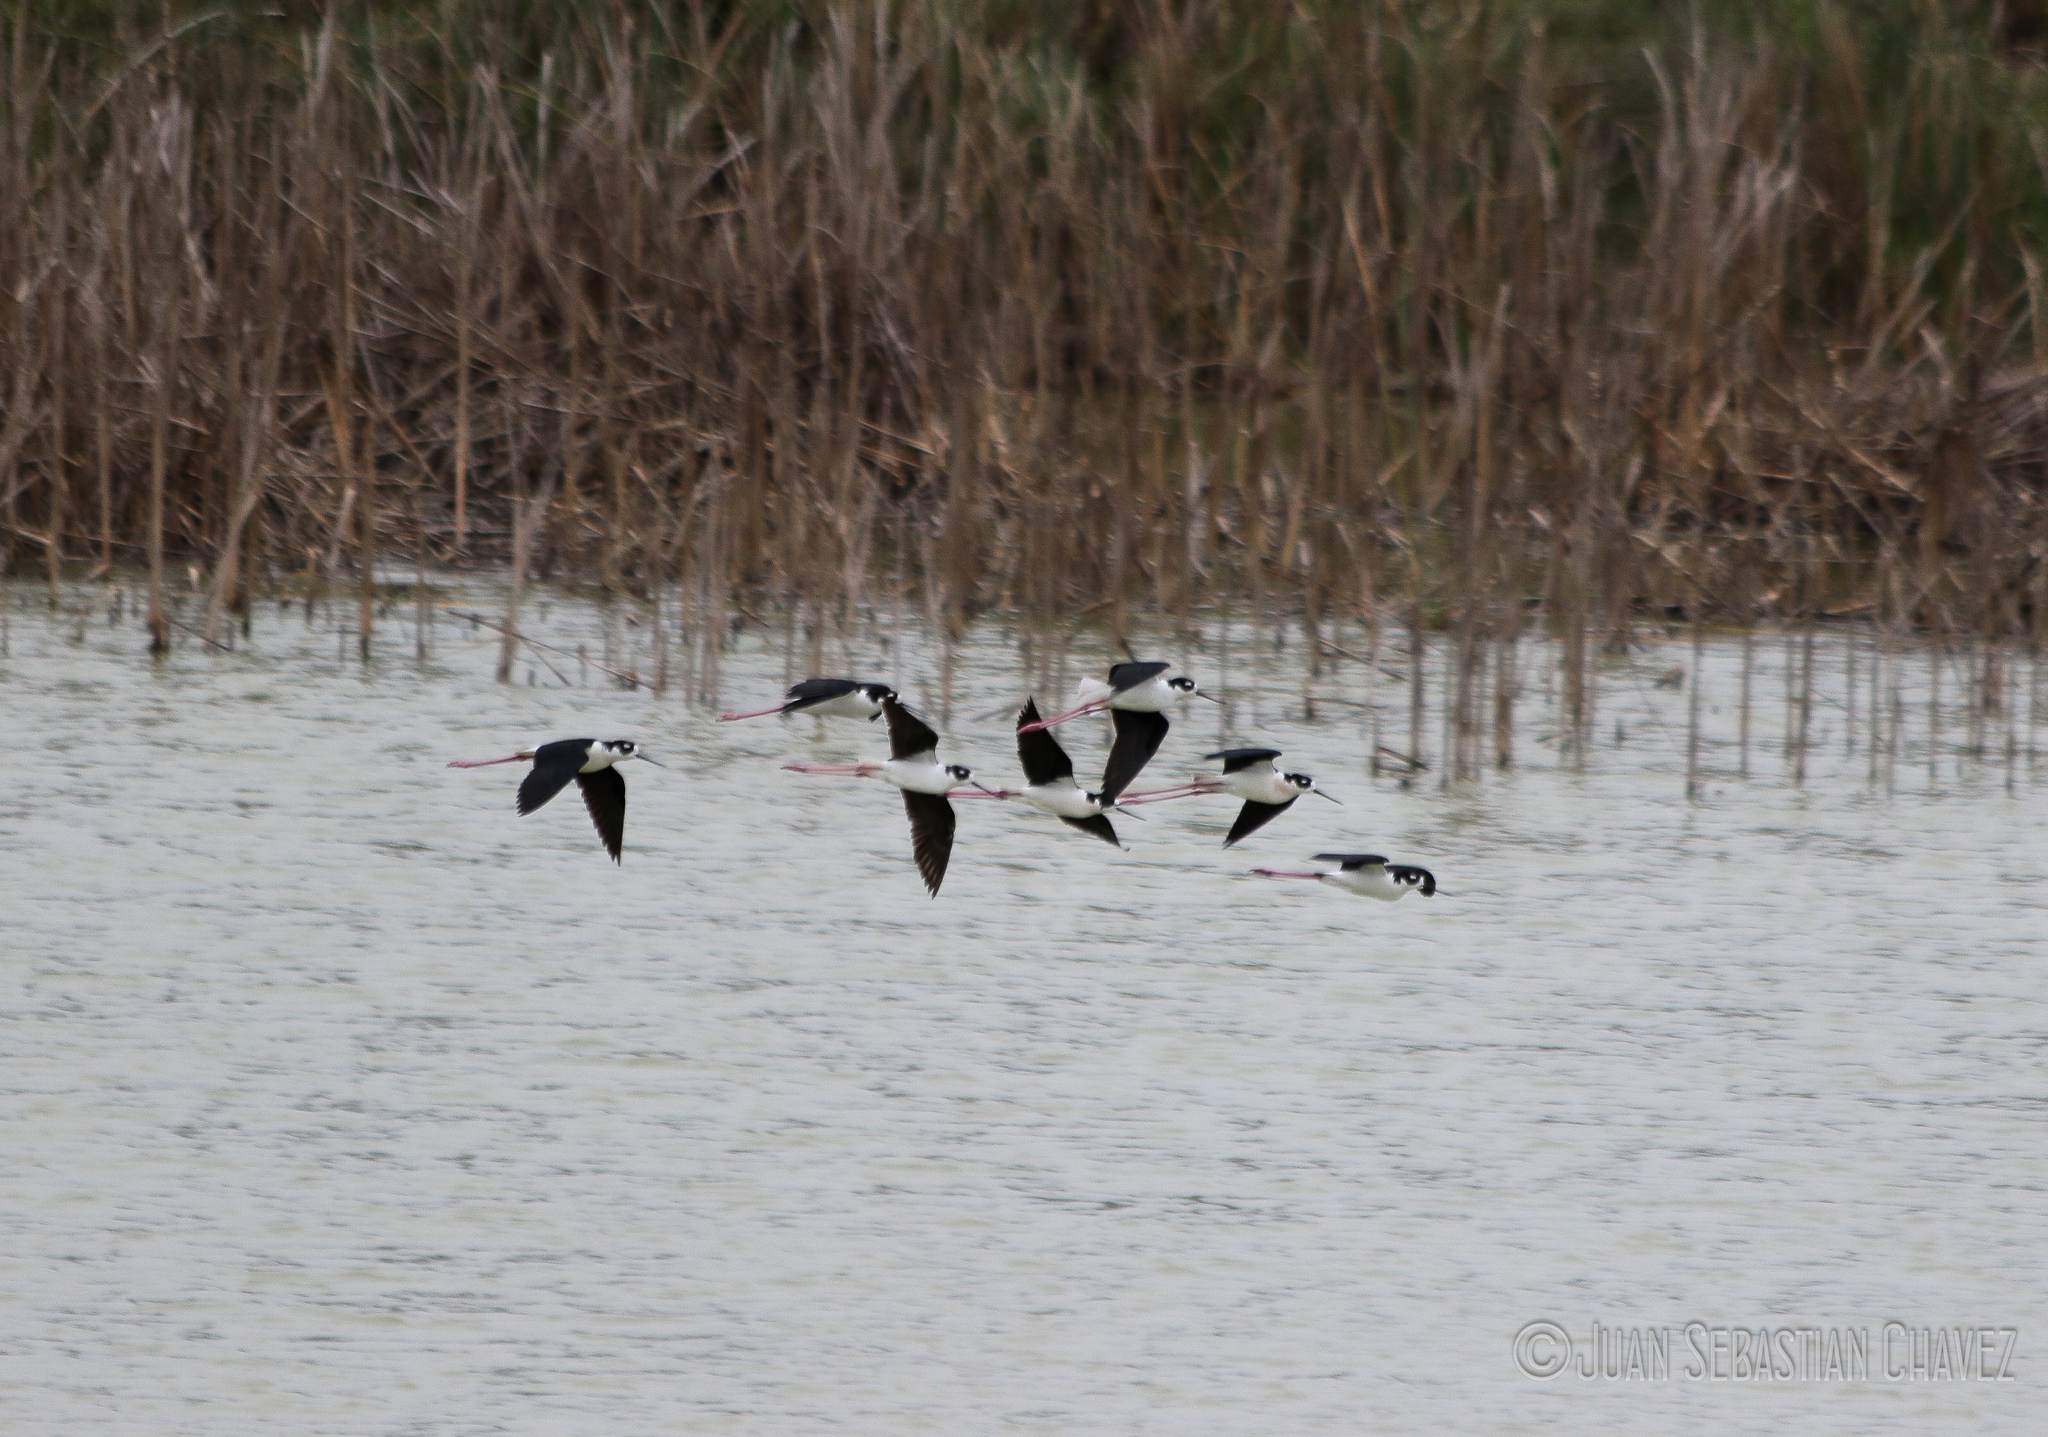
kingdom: Animalia
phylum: Chordata
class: Aves
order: Charadriiformes
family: Recurvirostridae
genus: Himantopus
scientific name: Himantopus mexicanus
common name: Black-necked stilt
